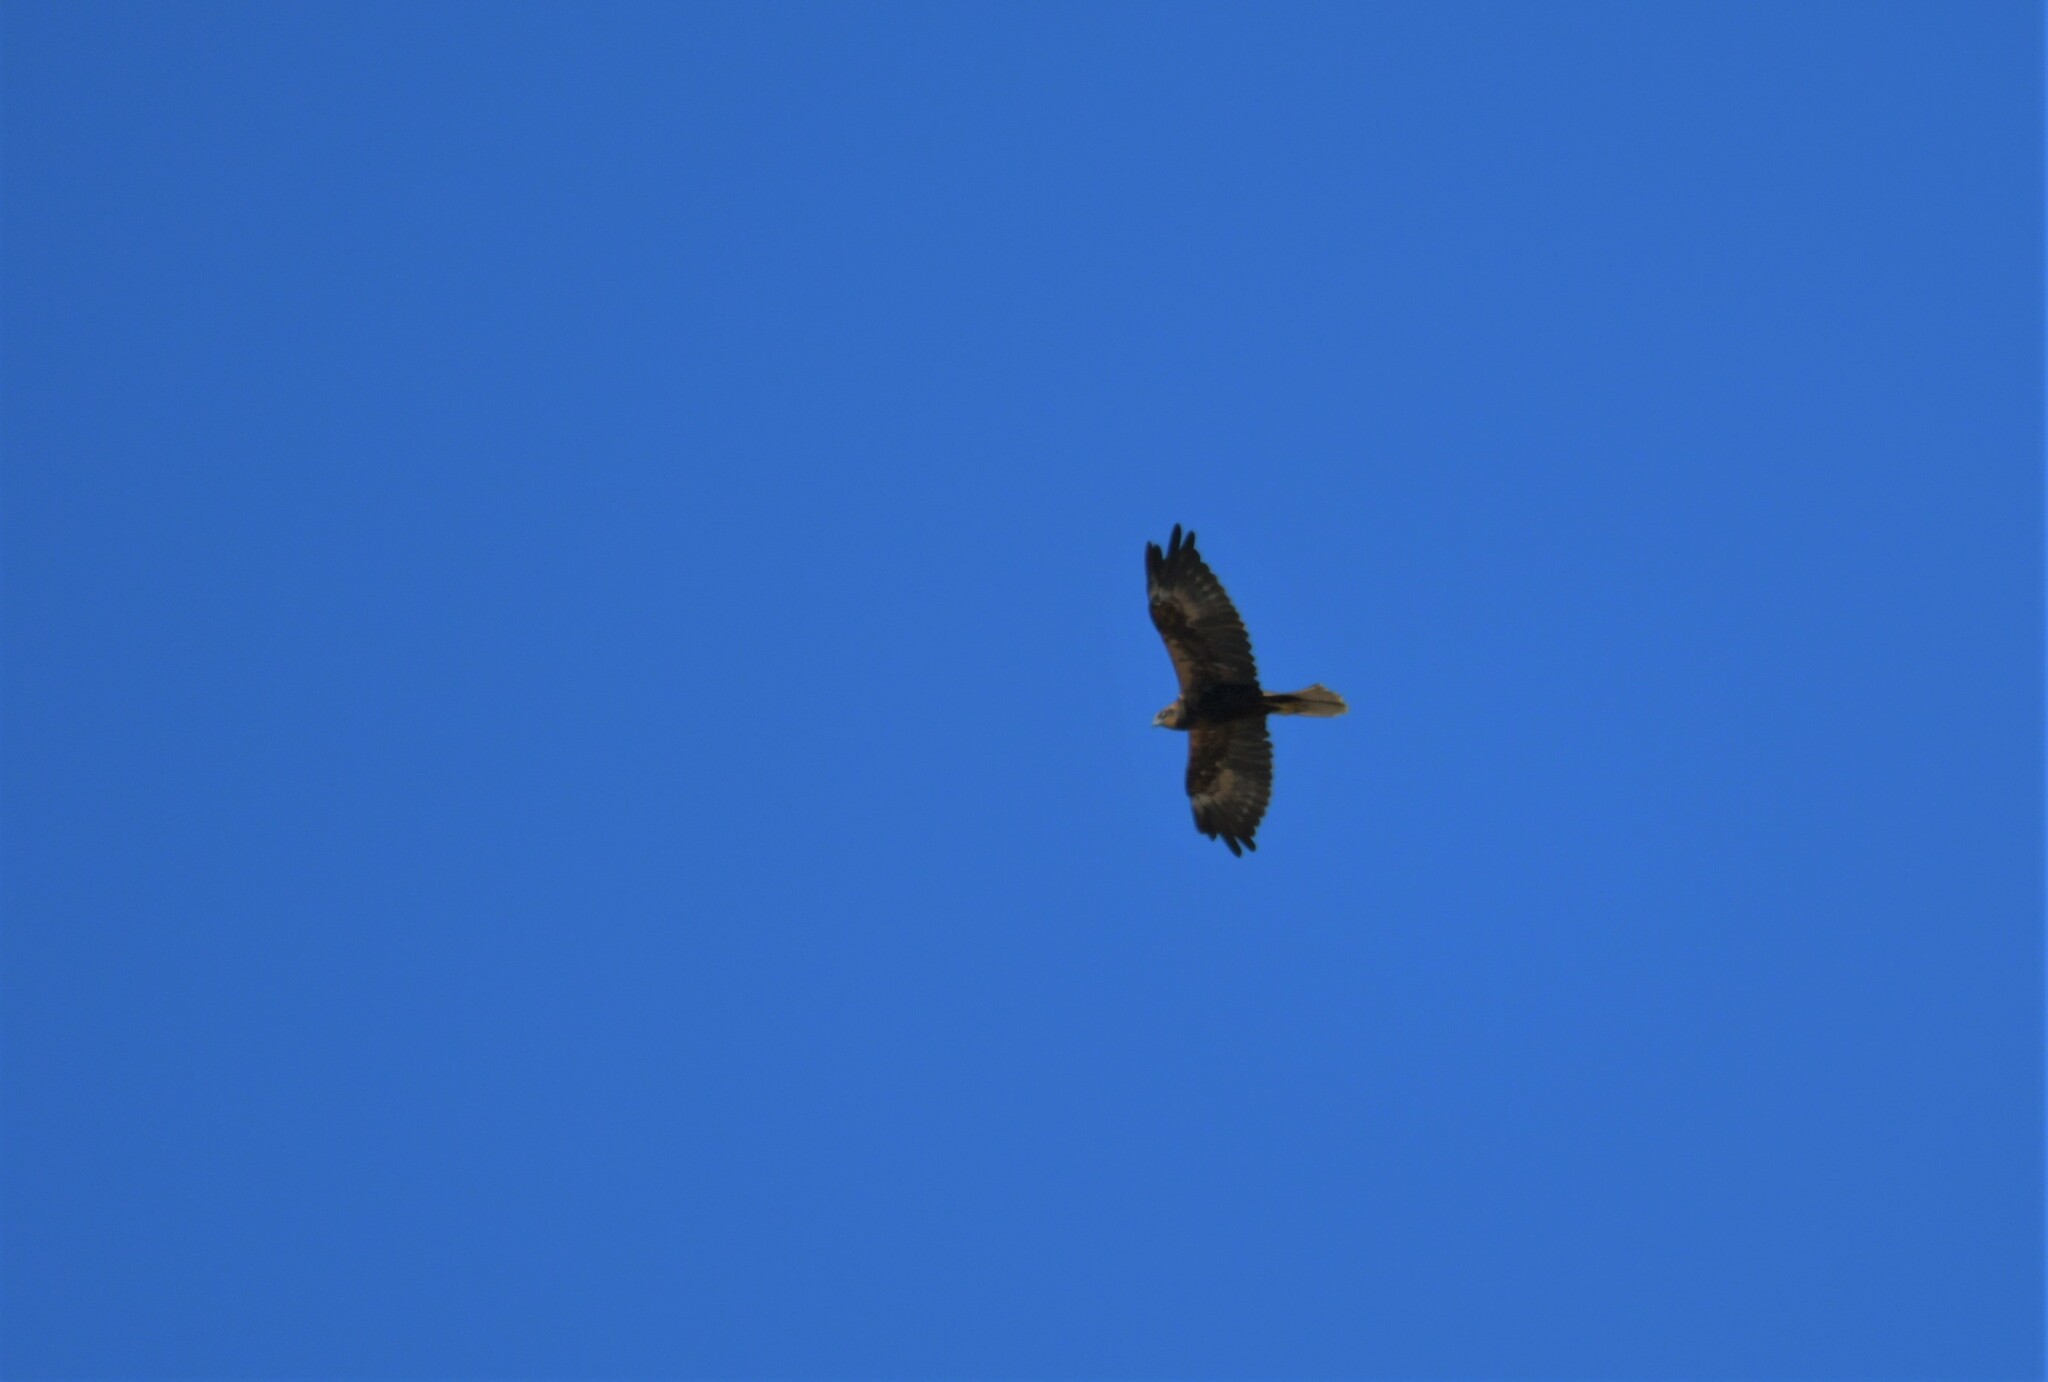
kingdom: Animalia
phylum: Chordata
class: Aves
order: Accipitriformes
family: Accipitridae
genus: Circus
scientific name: Circus aeruginosus
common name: Western marsh harrier
